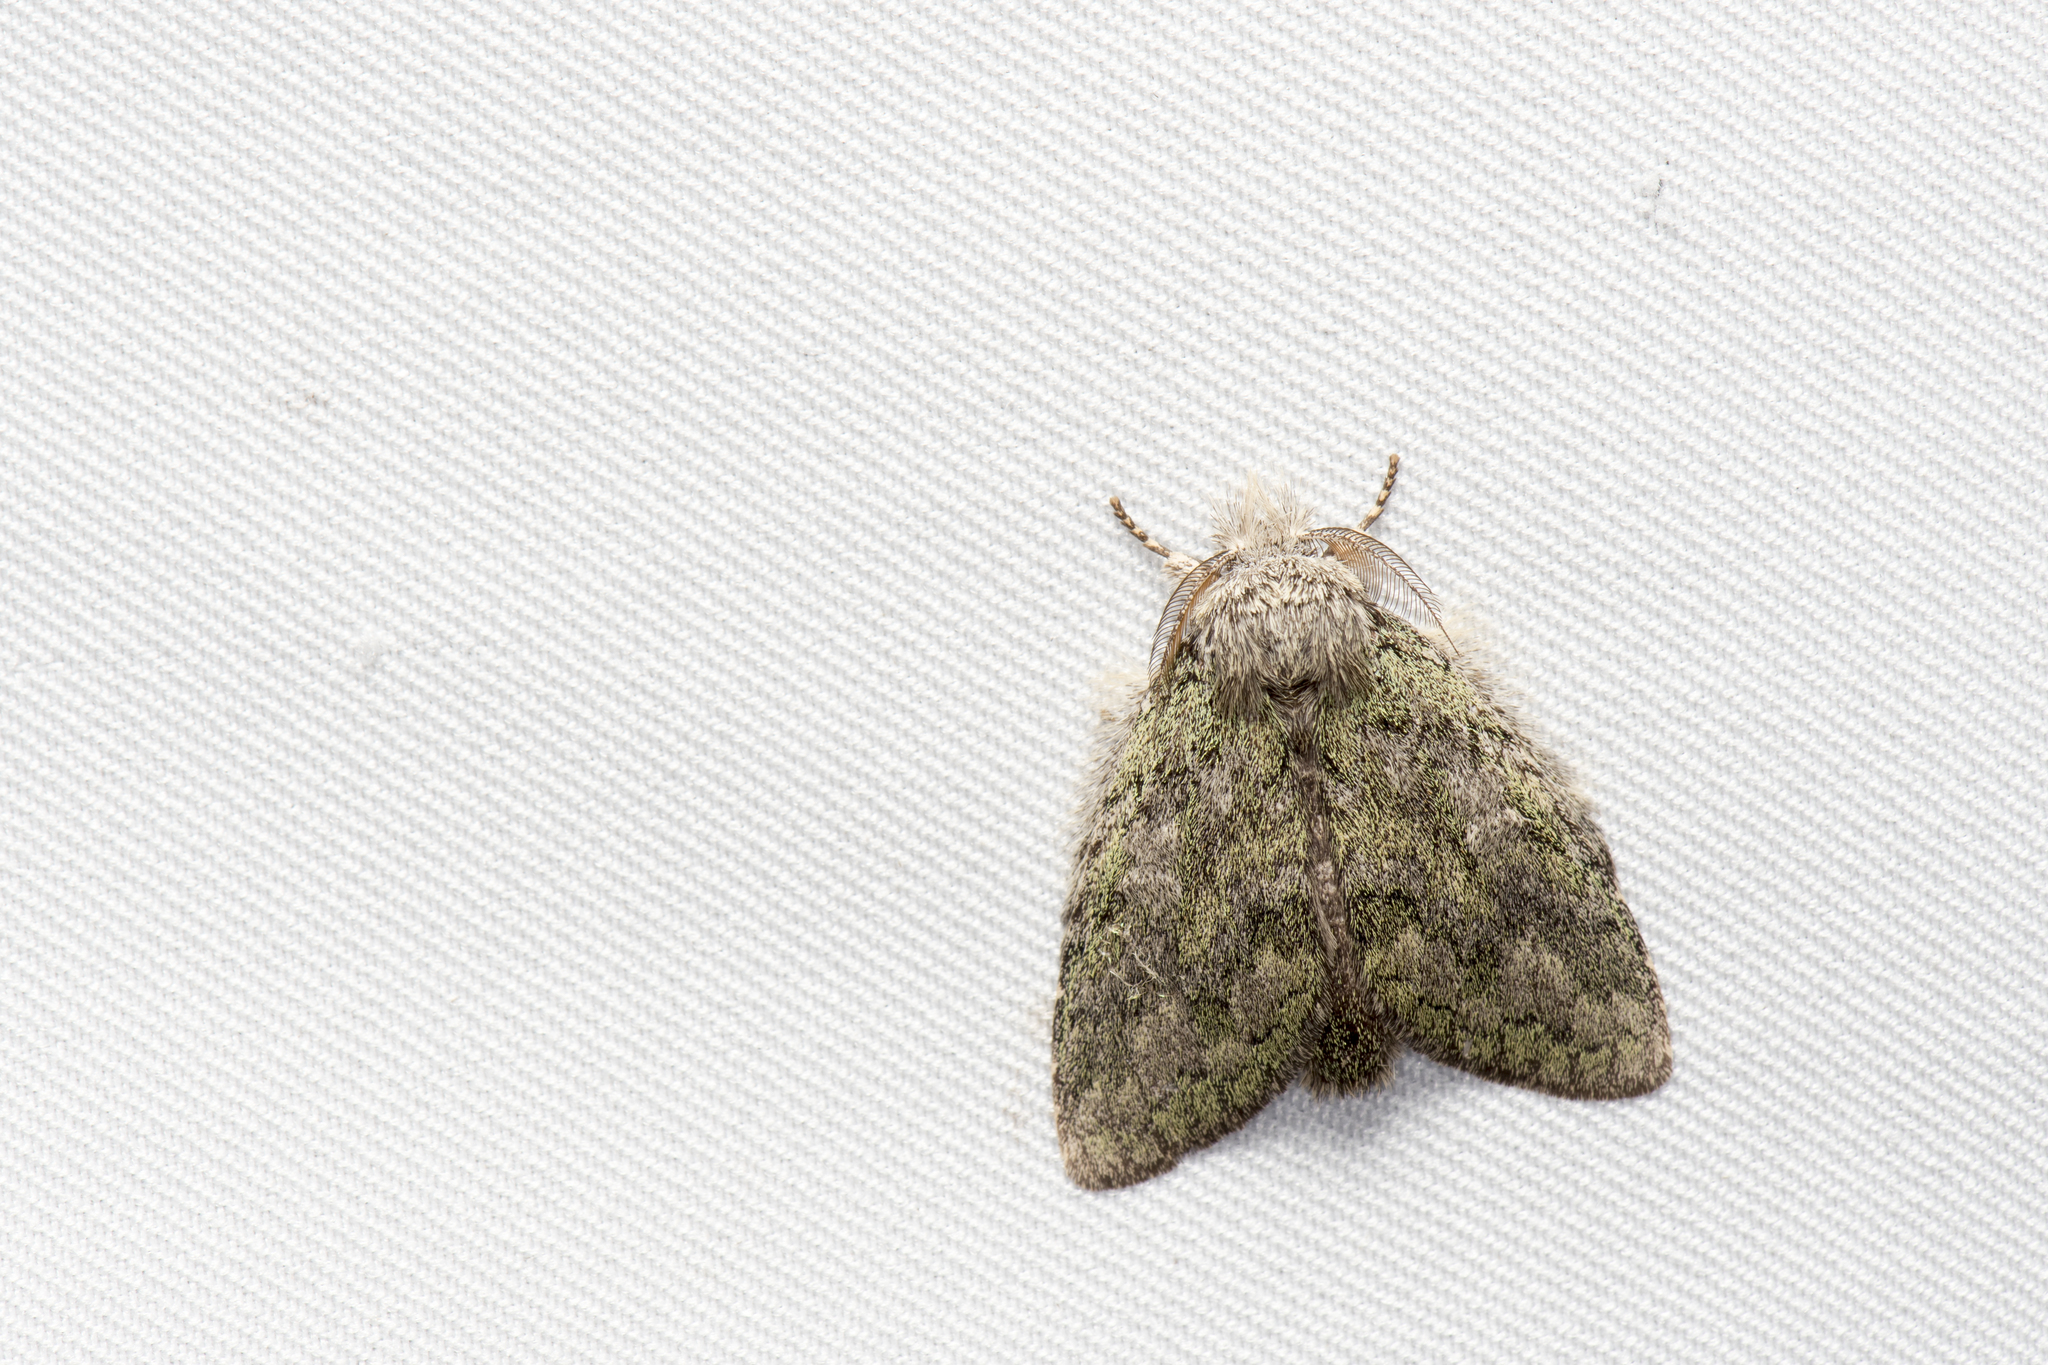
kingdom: Animalia
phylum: Arthropoda
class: Insecta
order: Lepidoptera
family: Notodontidae
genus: Syntypistis
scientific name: Syntypistis viridipicta
